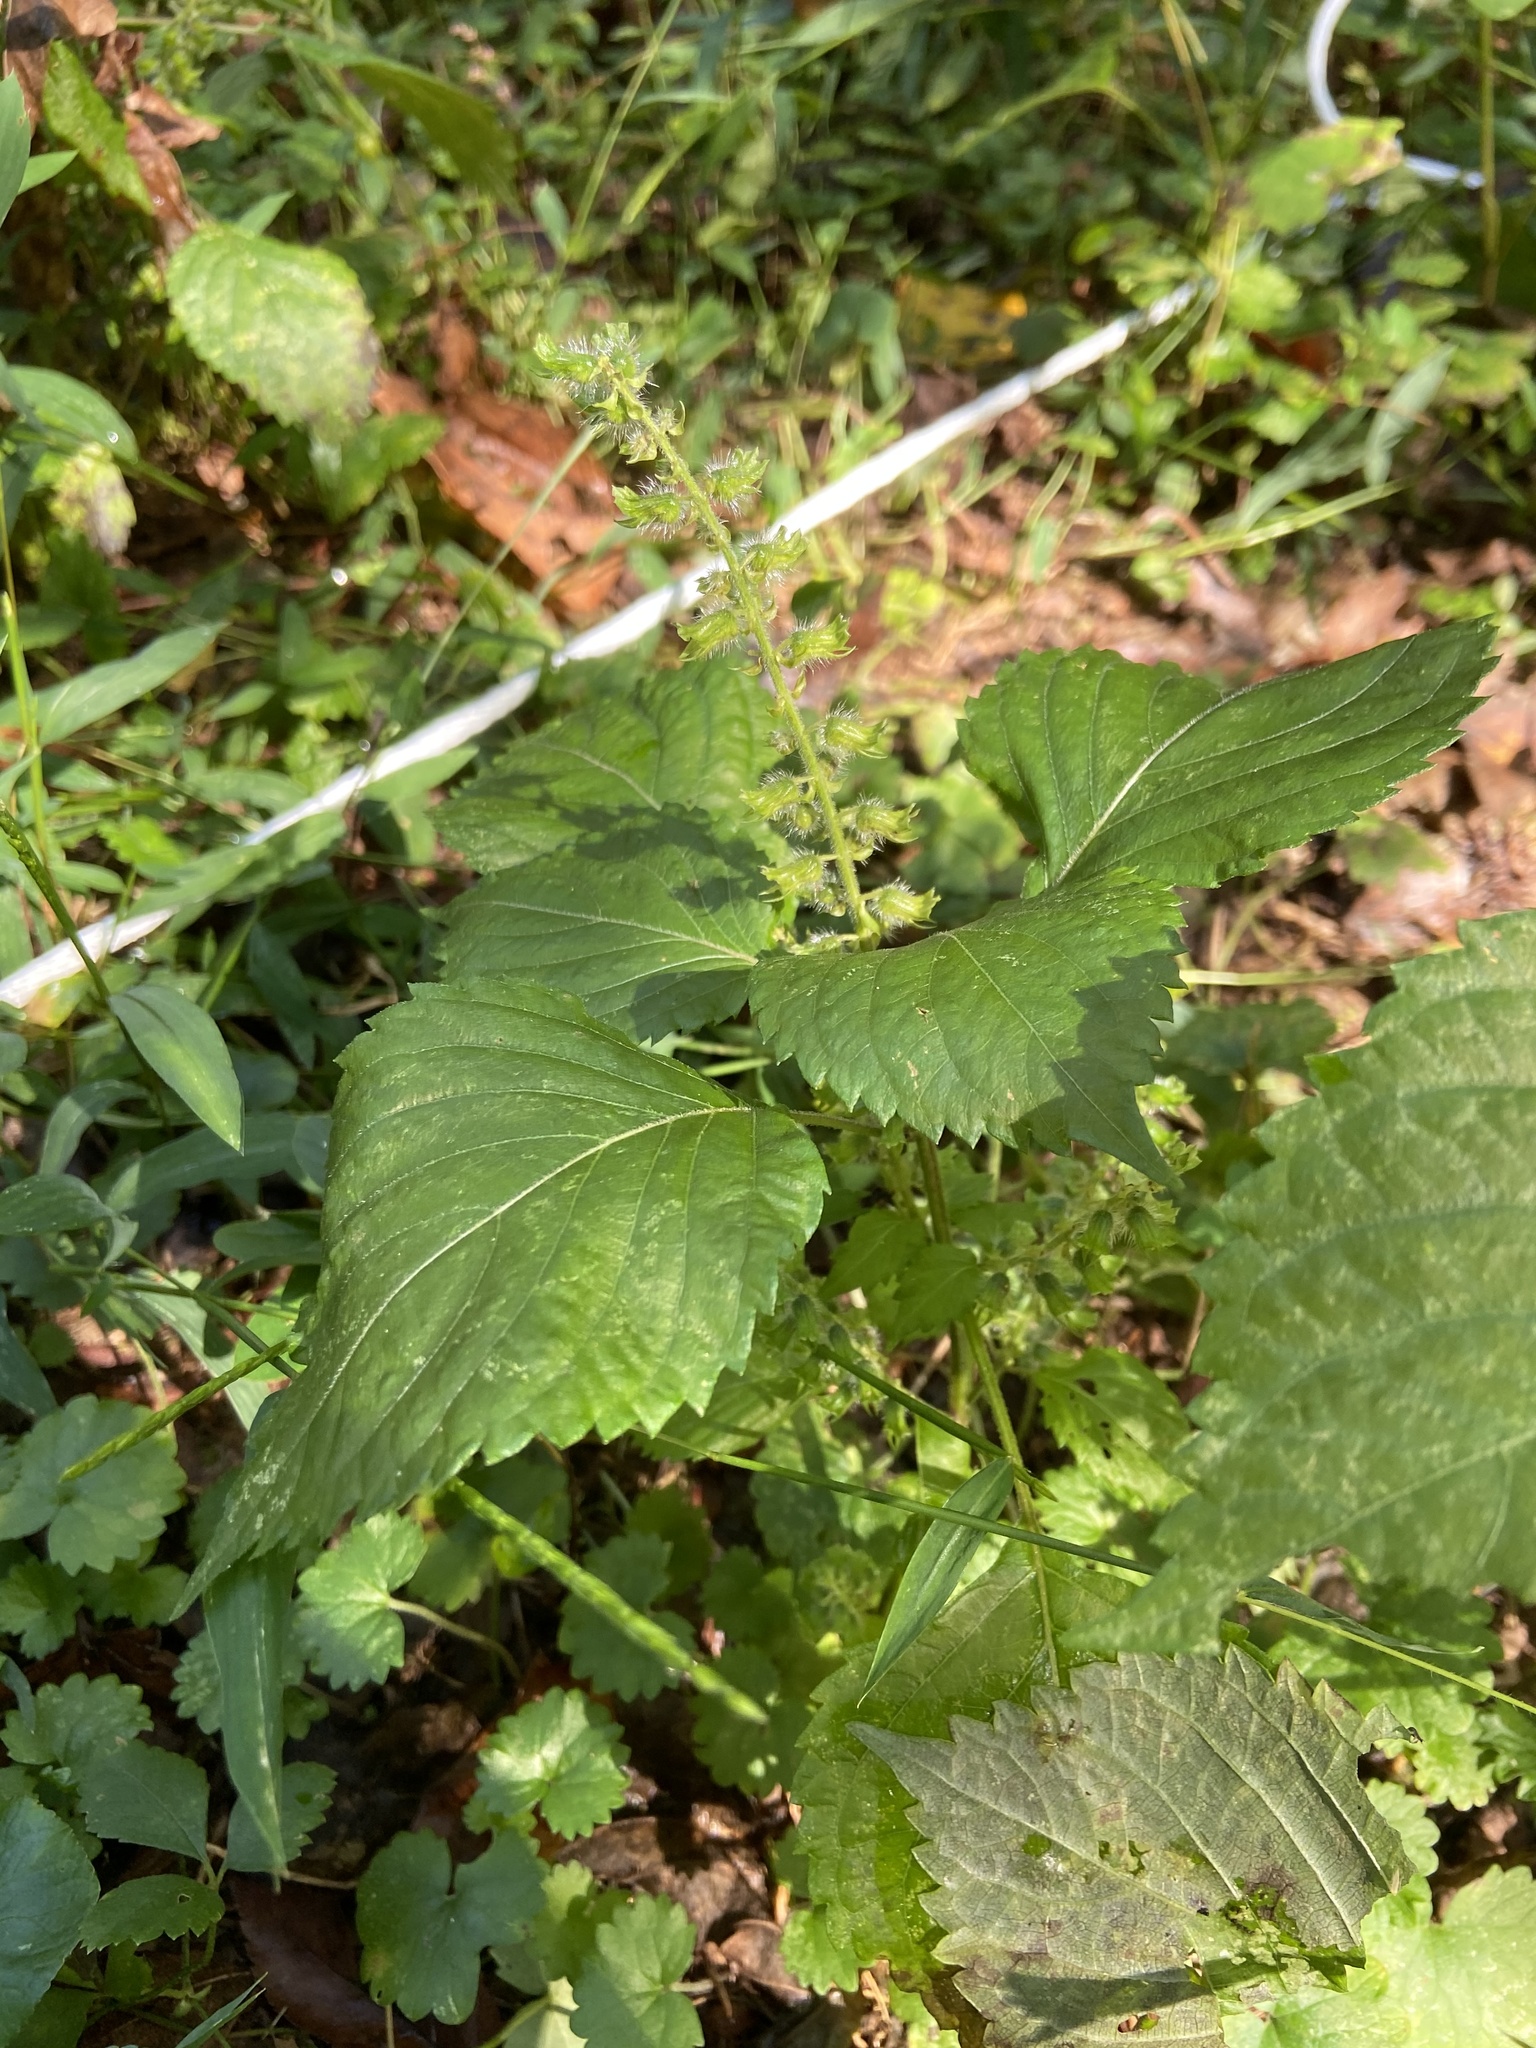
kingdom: Plantae
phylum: Tracheophyta
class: Magnoliopsida
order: Lamiales
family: Lamiaceae
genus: Perilla
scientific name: Perilla frutescens
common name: Perilla
